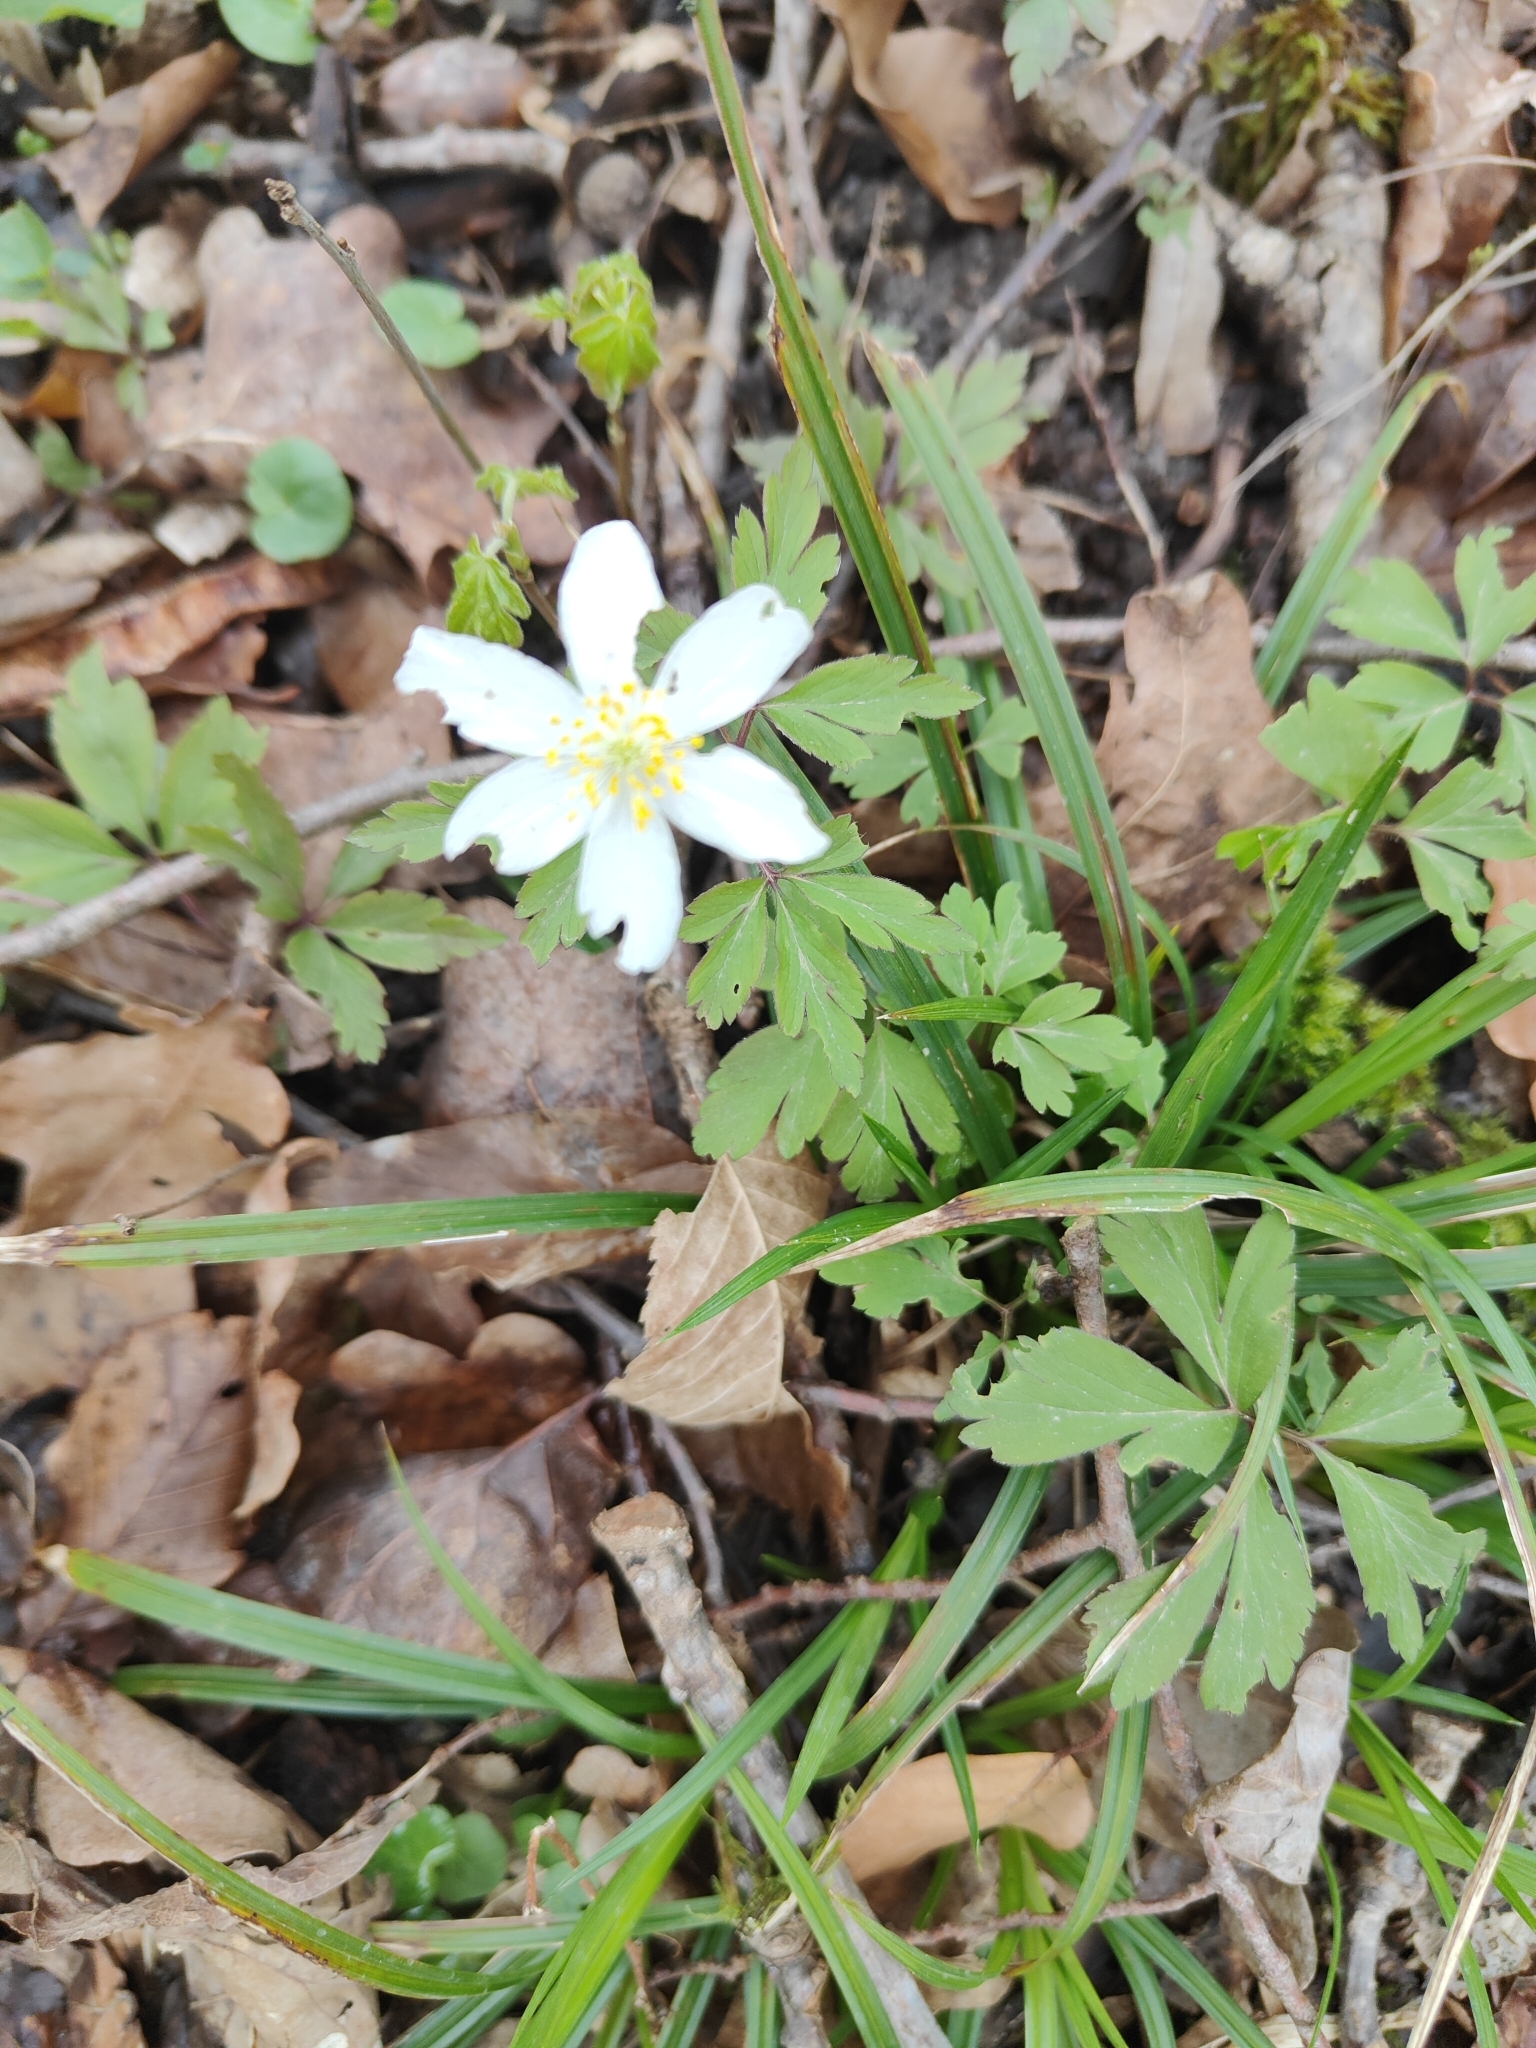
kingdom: Plantae
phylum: Tracheophyta
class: Magnoliopsida
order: Ranunculales
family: Ranunculaceae
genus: Anemone
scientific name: Anemone nemorosa
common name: Wood anemone
